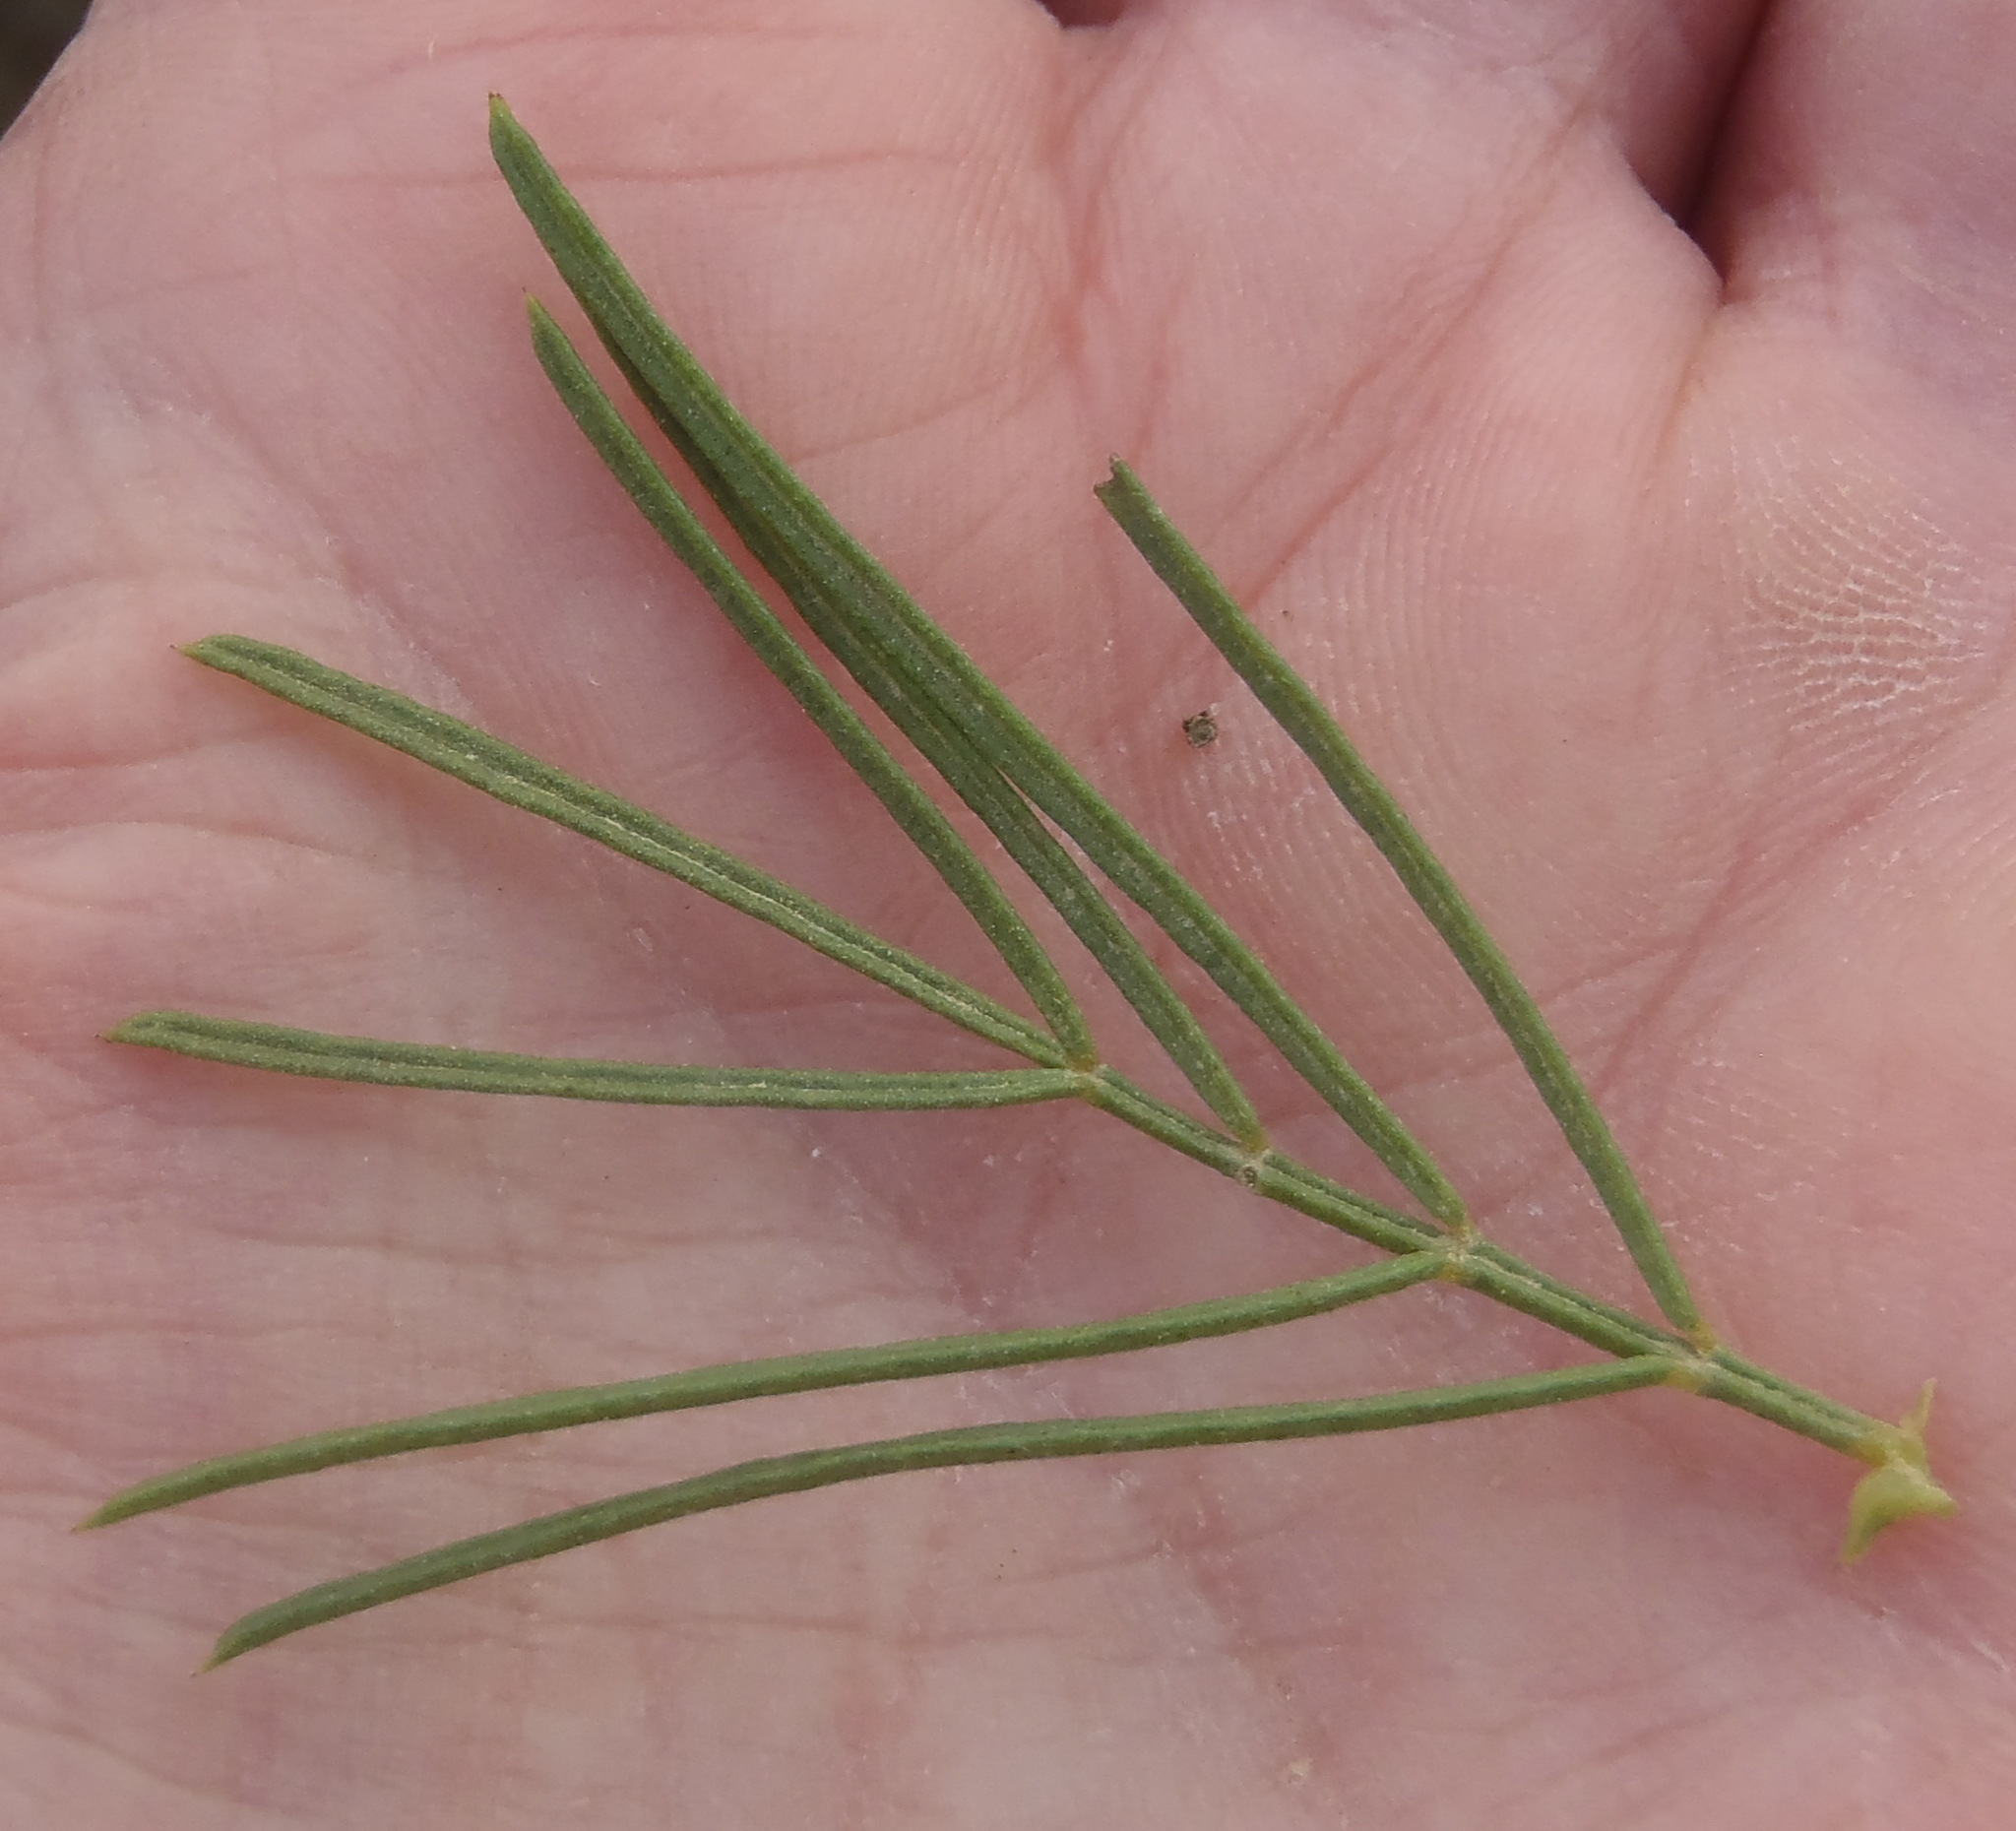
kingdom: Plantae
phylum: Tracheophyta
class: Magnoliopsida
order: Fabales
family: Fabaceae
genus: Psoralea
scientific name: Psoralea brilliantissima
